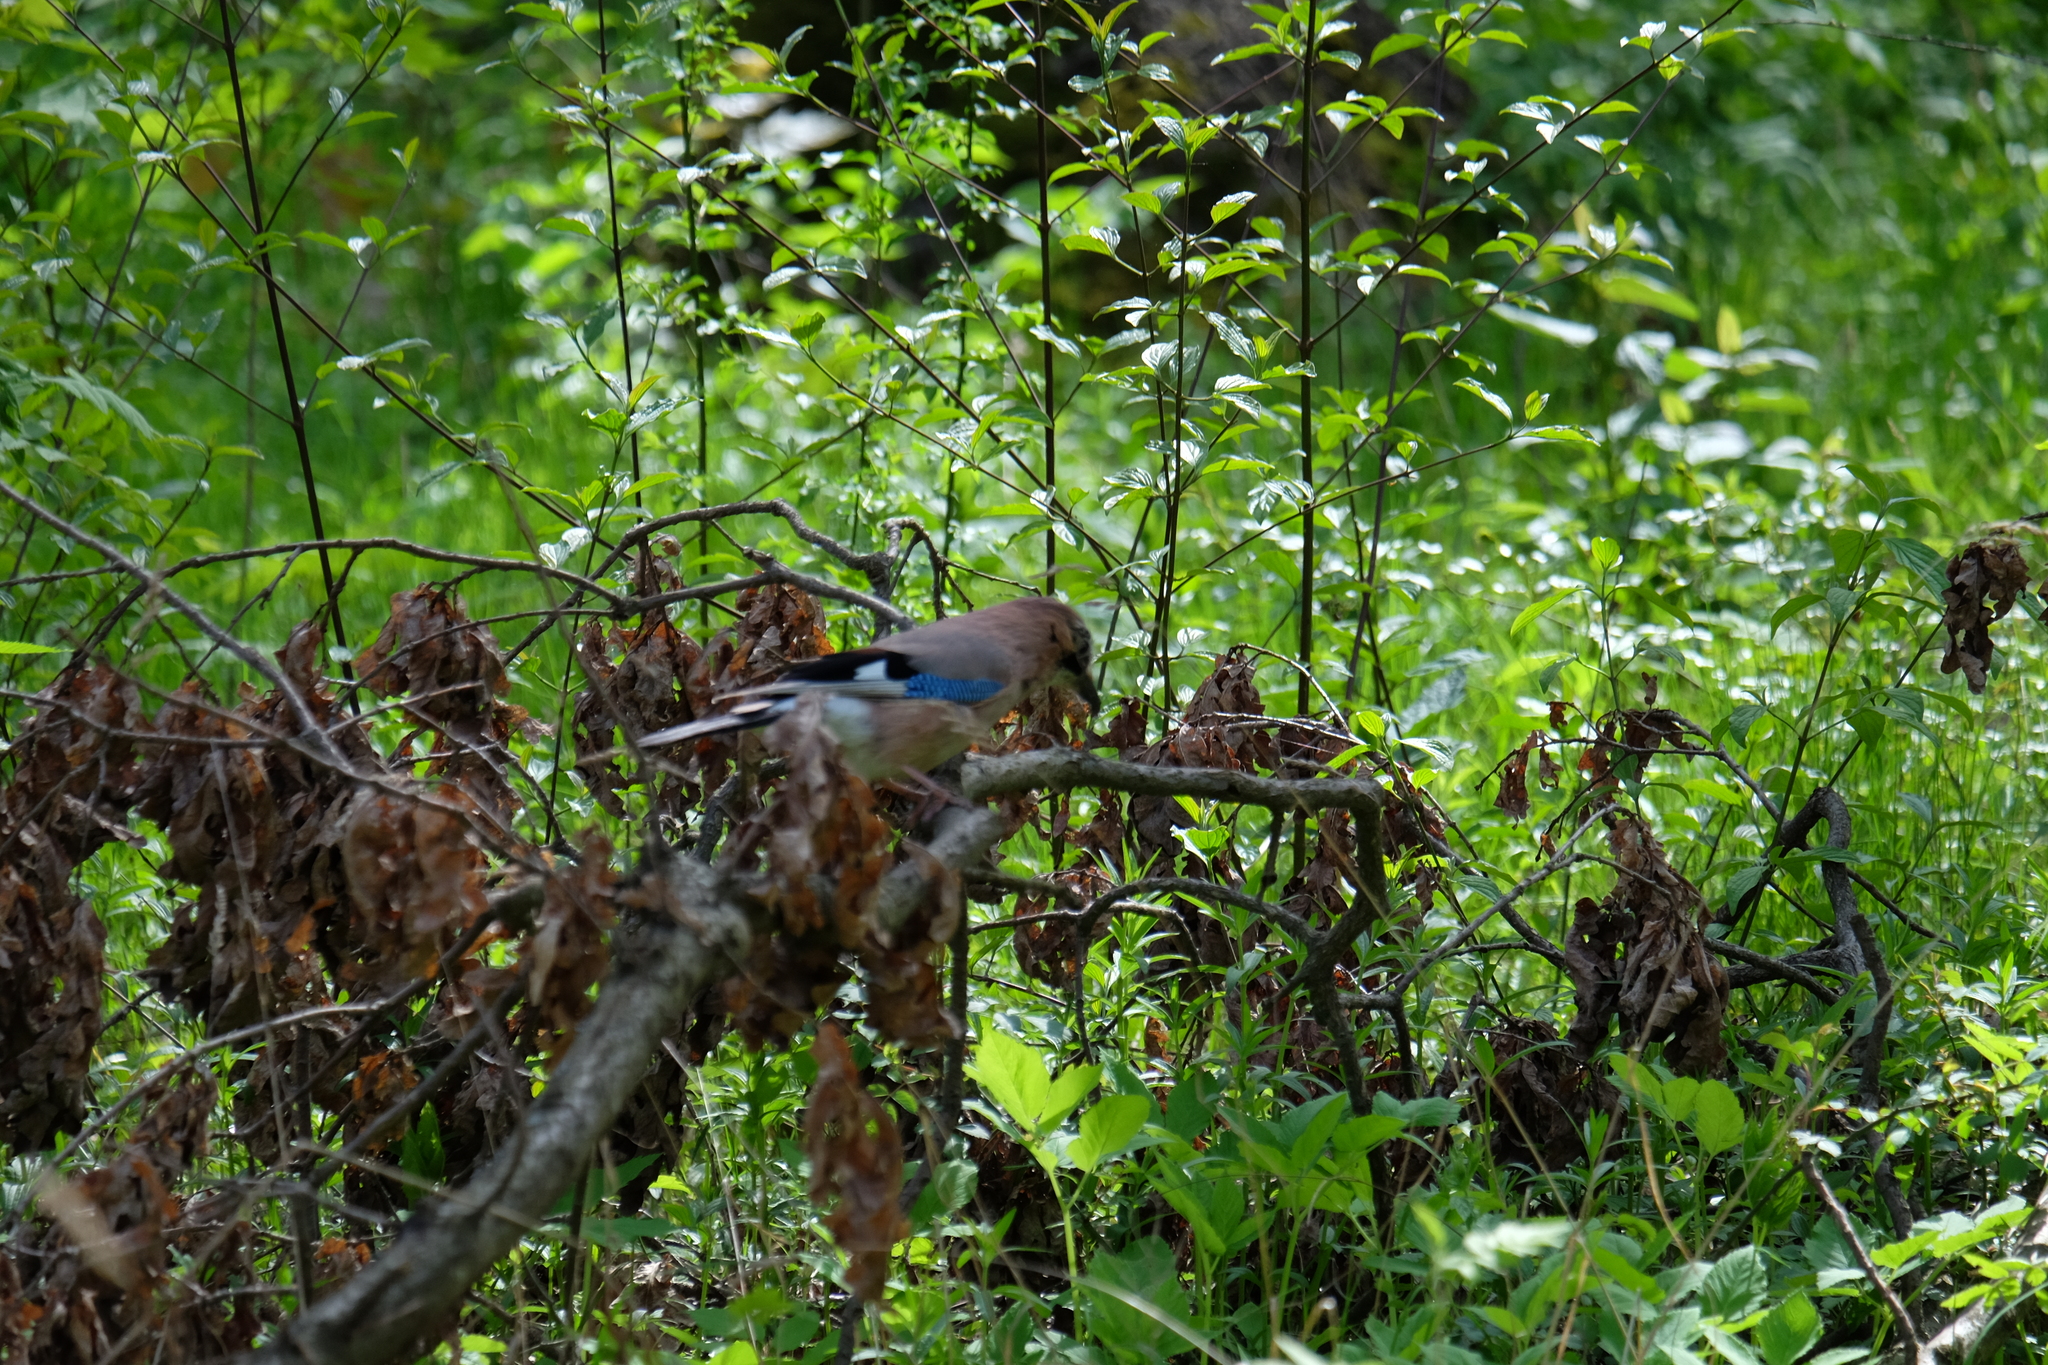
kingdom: Animalia
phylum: Chordata
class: Aves
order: Passeriformes
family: Corvidae
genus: Garrulus
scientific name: Garrulus glandarius
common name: Eurasian jay
